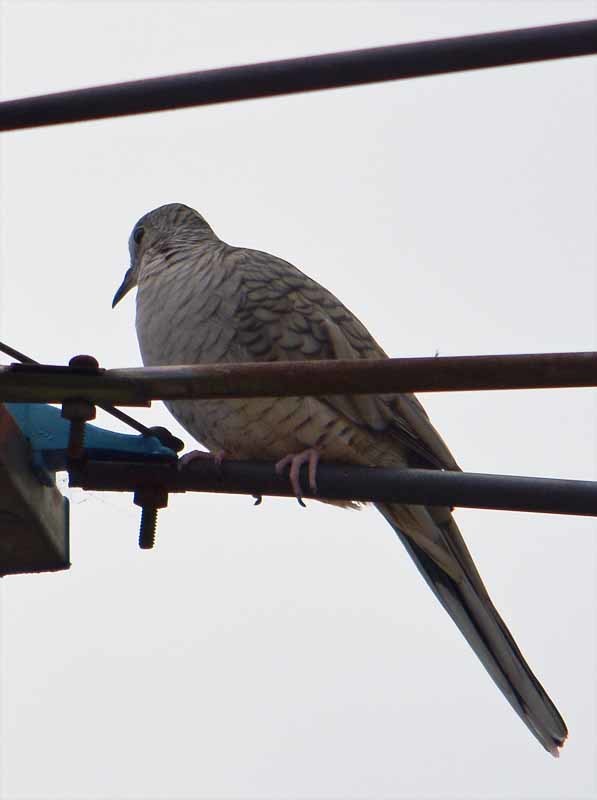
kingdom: Animalia
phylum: Chordata
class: Aves
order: Columbiformes
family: Columbidae
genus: Columbina
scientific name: Columbina inca
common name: Inca dove
